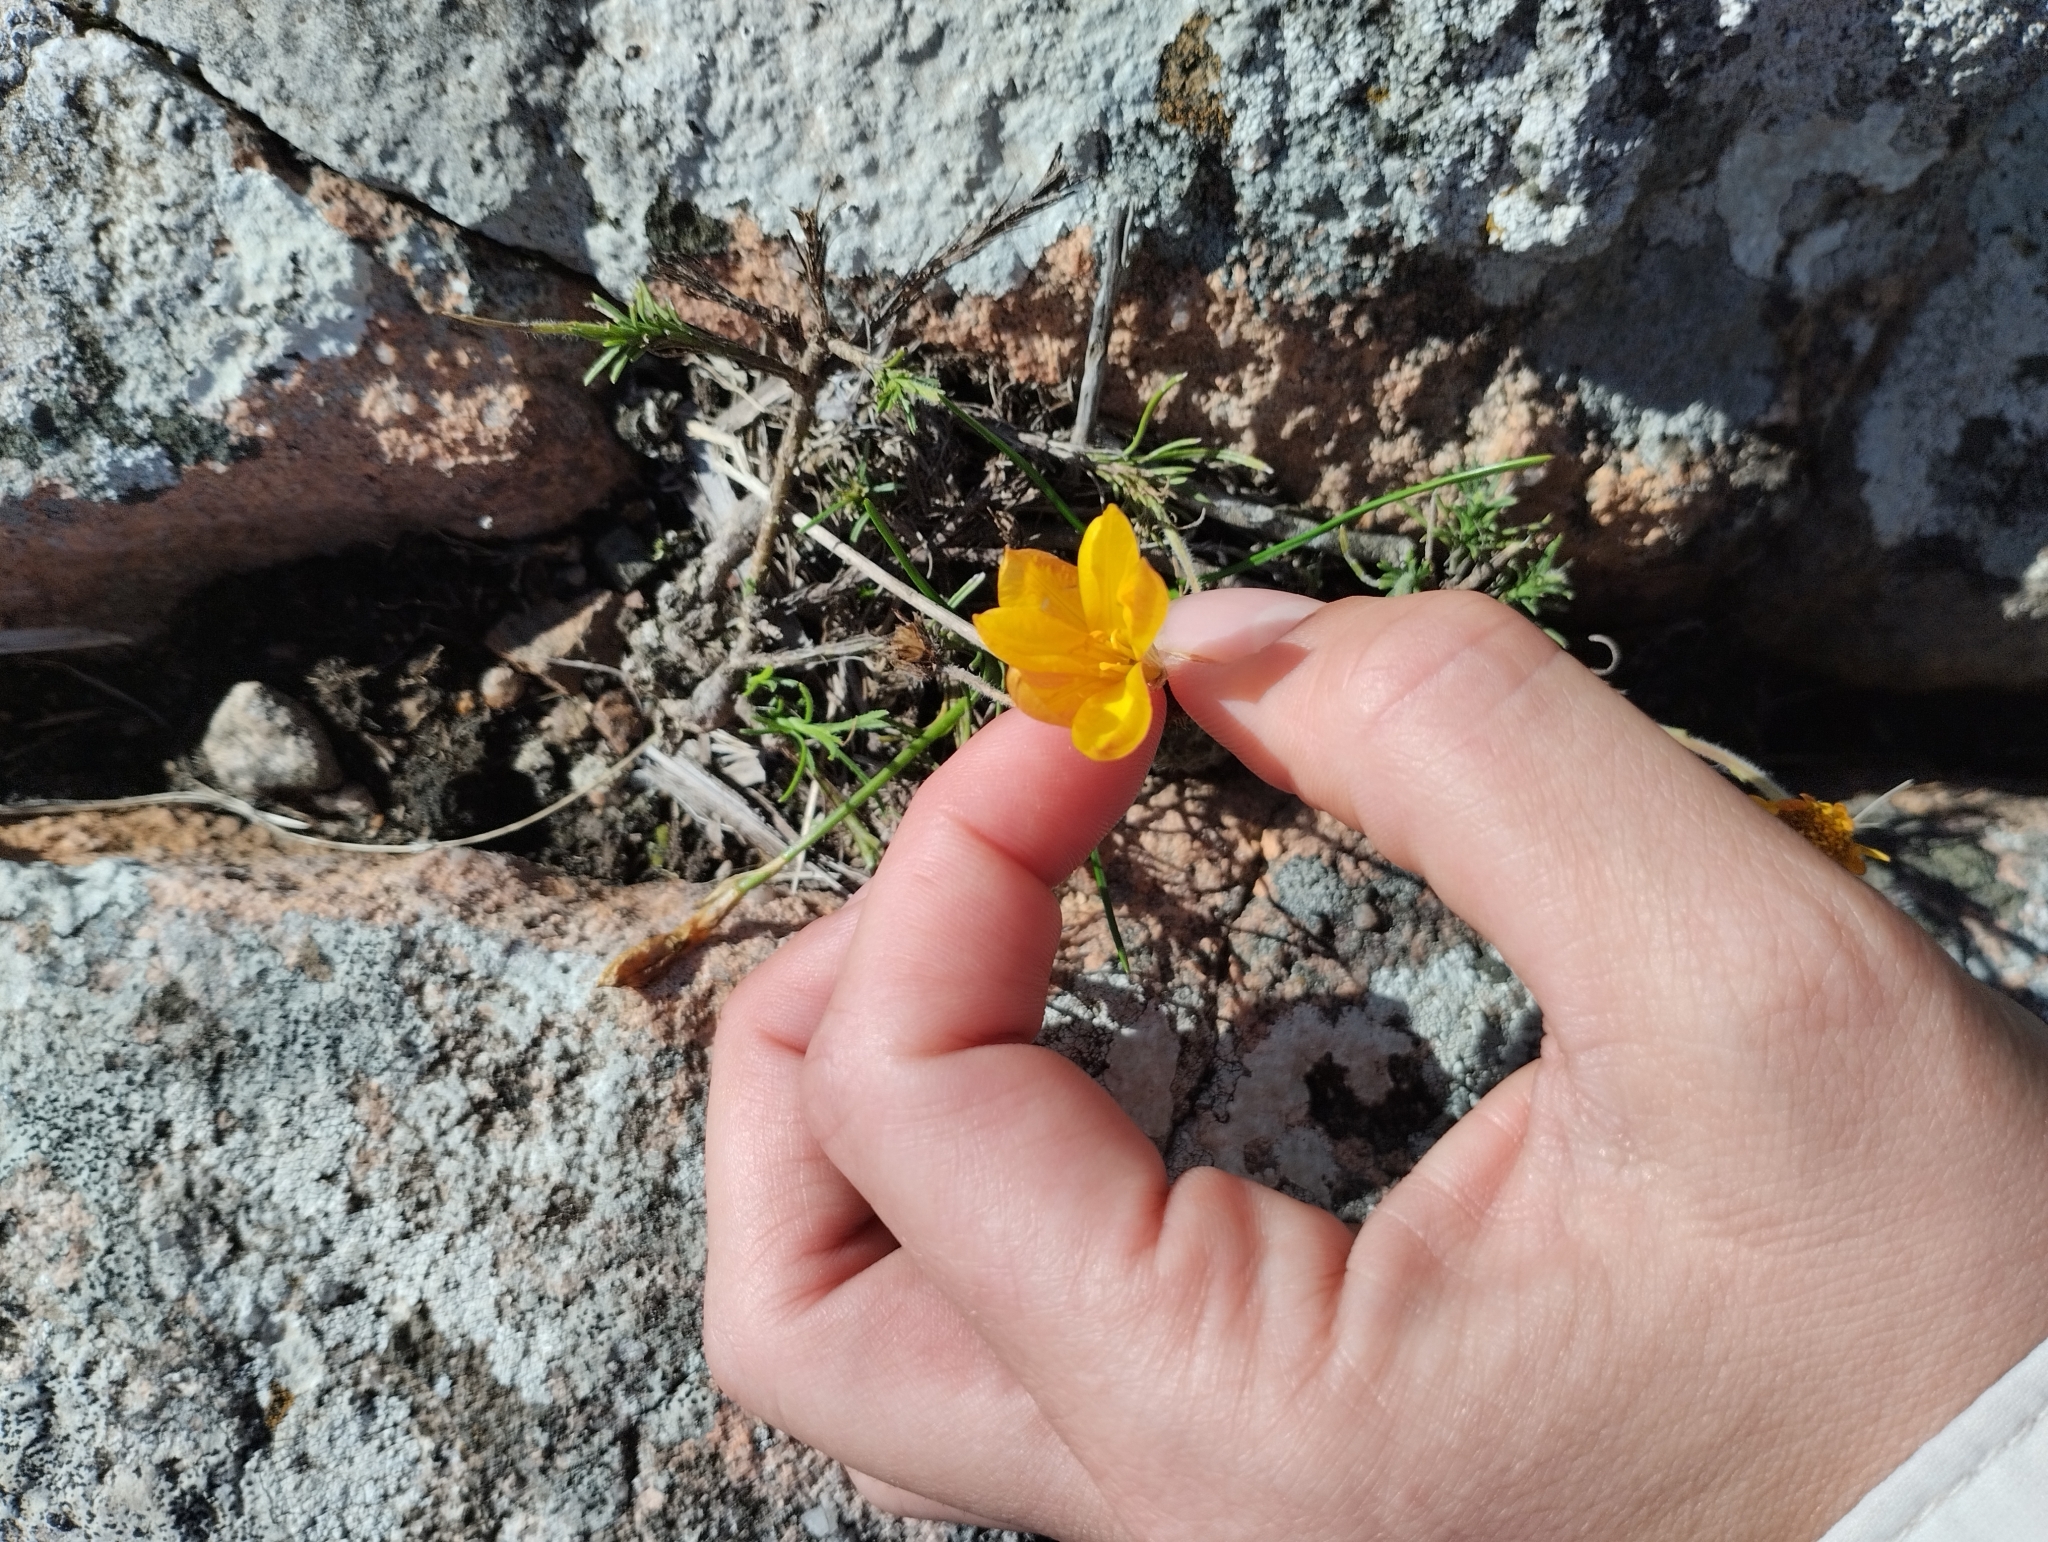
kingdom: Plantae
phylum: Tracheophyta
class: Liliopsida
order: Asparagales
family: Amaryllidaceae
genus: Nothoscordum
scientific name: Nothoscordum hirtellum
